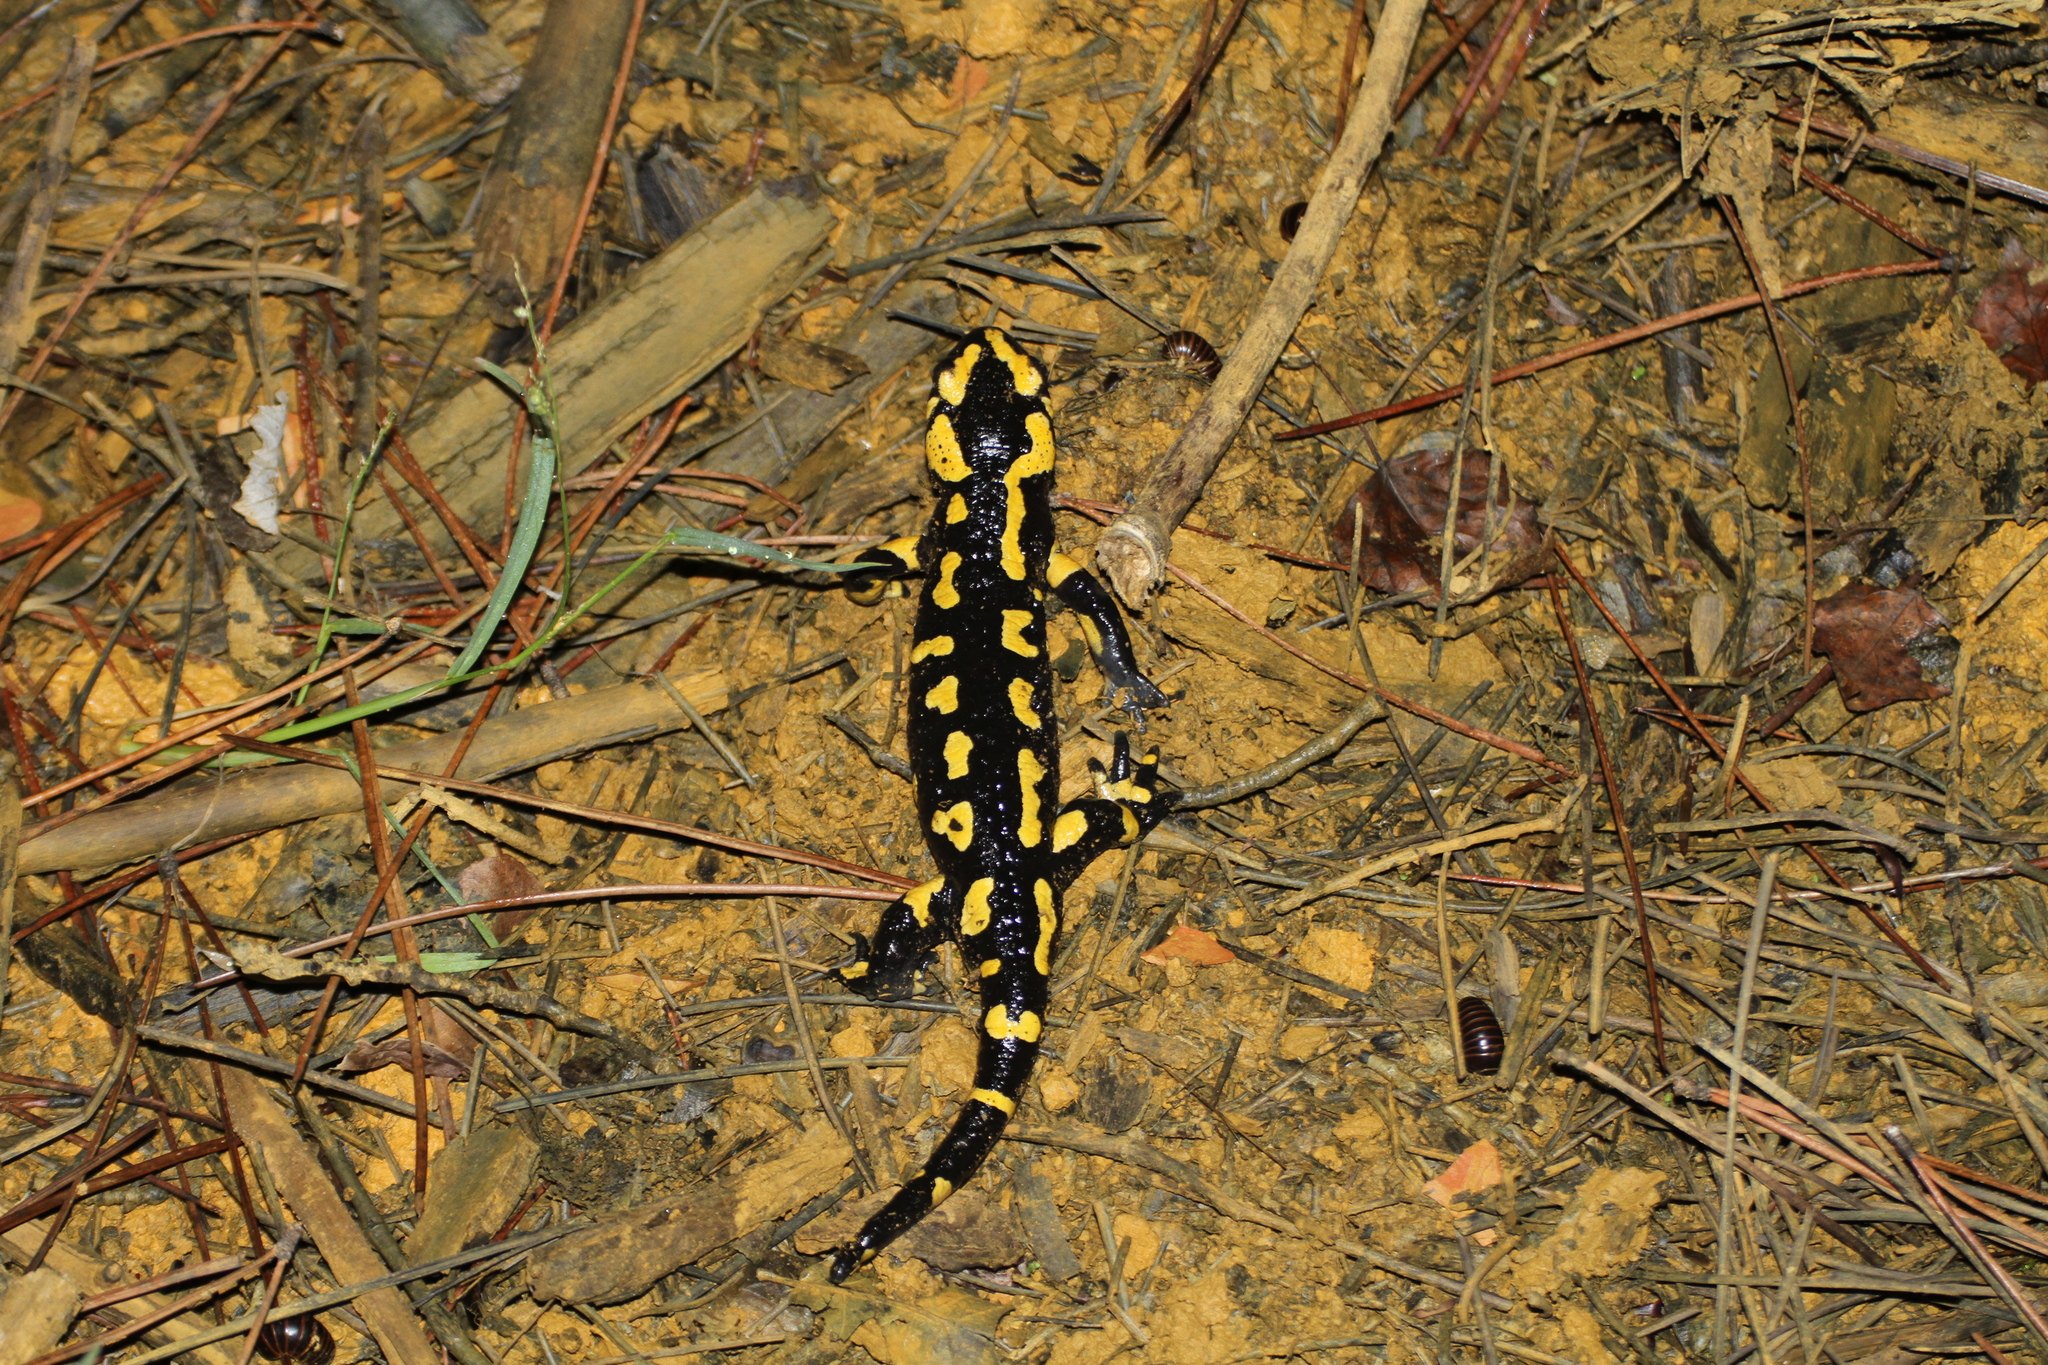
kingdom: Animalia
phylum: Chordata
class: Amphibia
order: Caudata
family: Salamandridae
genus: Salamandra
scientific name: Salamandra salamandra
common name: Fire salamander
